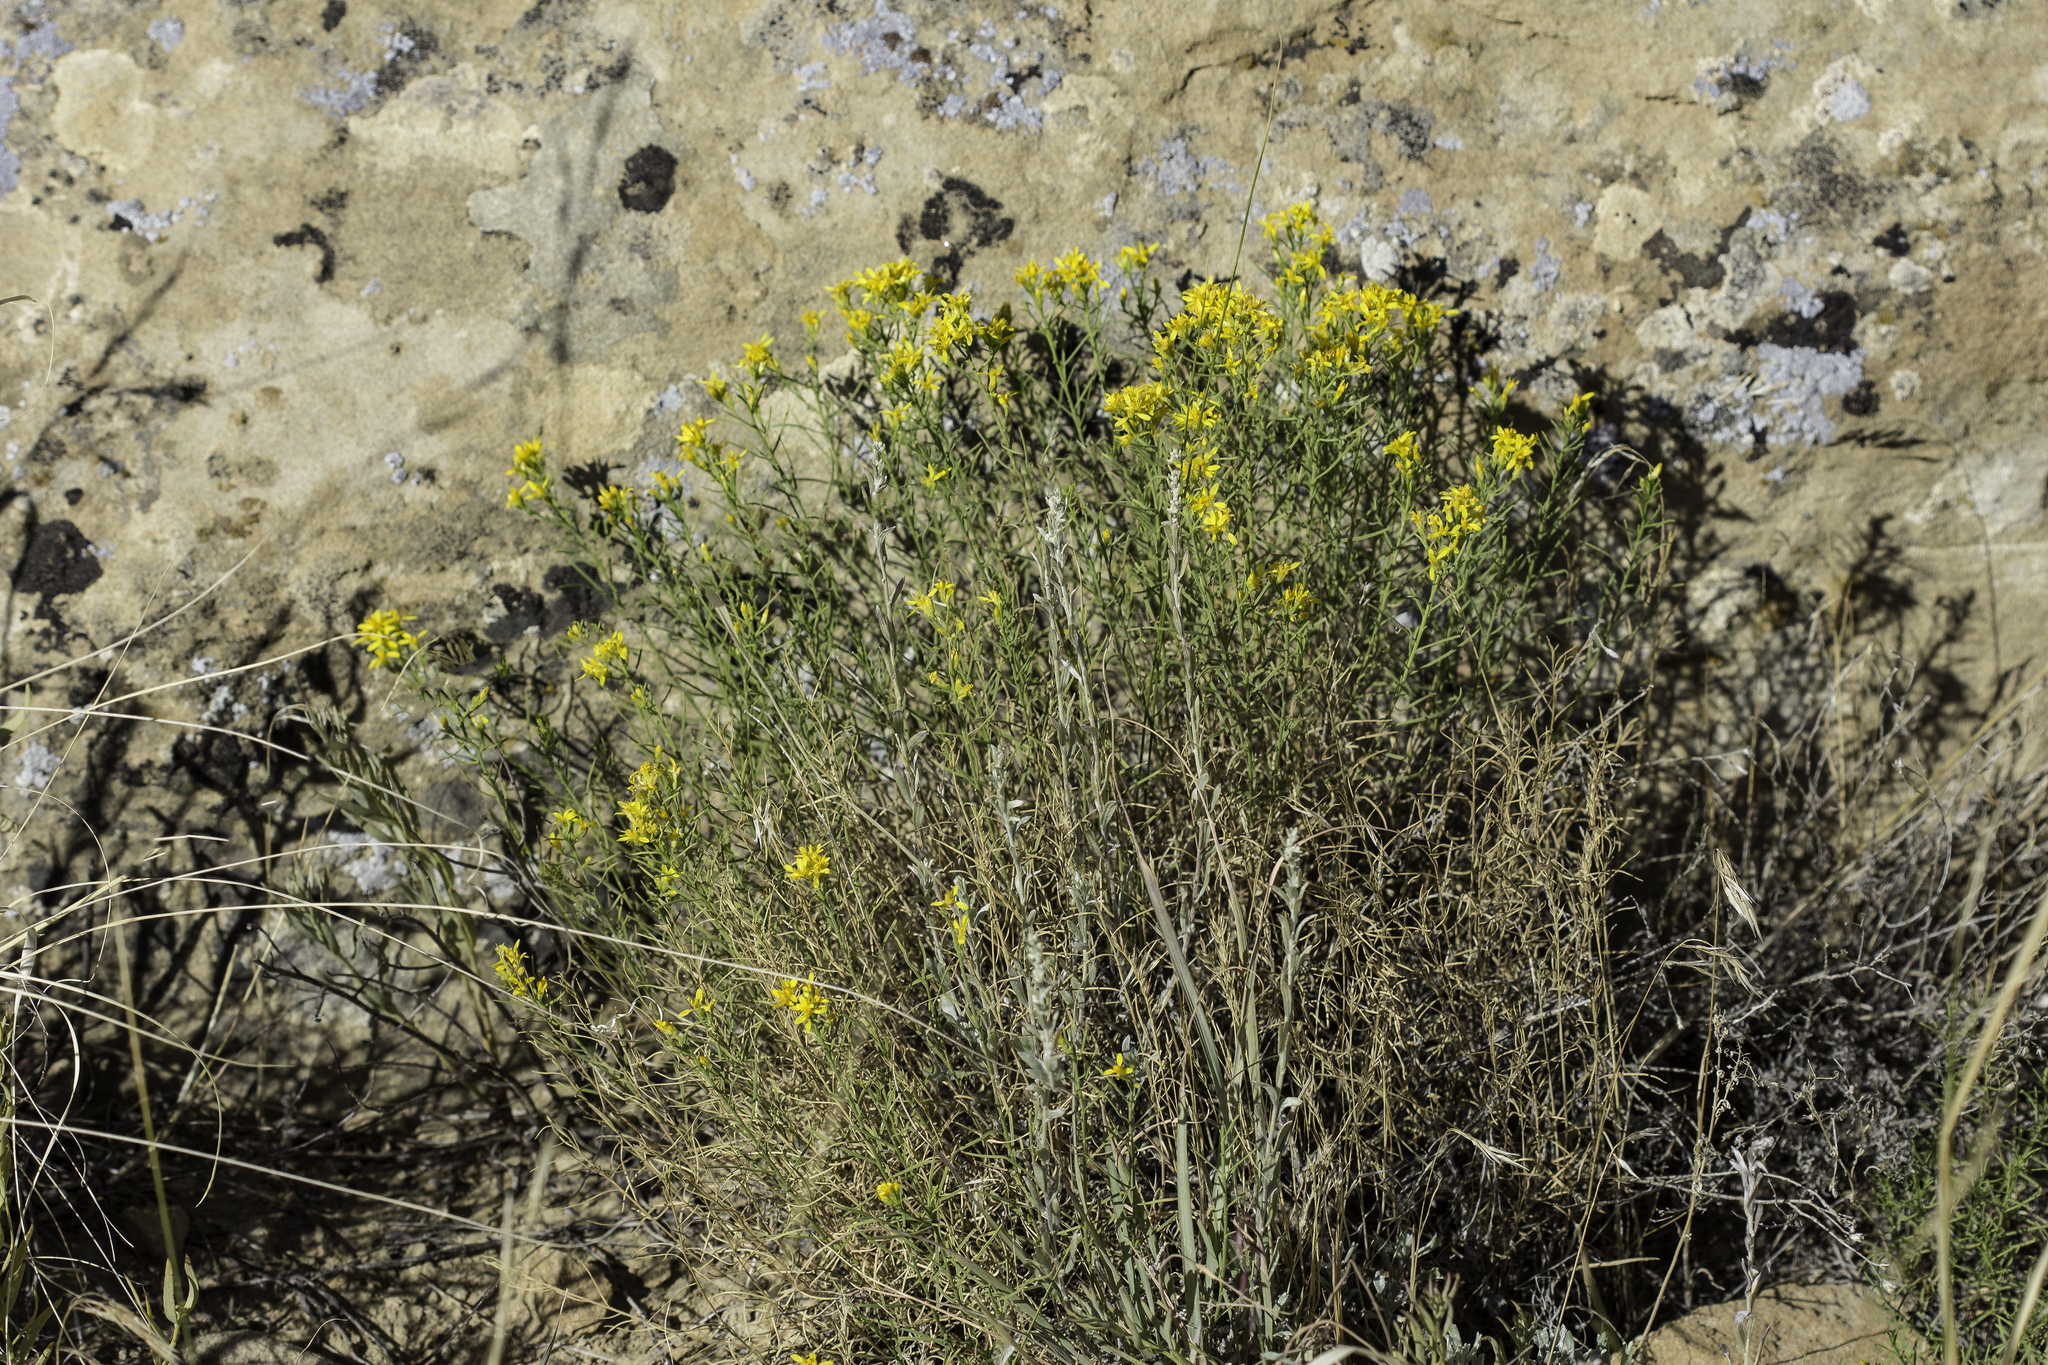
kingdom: Plantae
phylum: Tracheophyta
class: Magnoliopsida
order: Asterales
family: Asteraceae
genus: Gutierrezia
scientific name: Gutierrezia sarothrae
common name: Broom snakeweed
